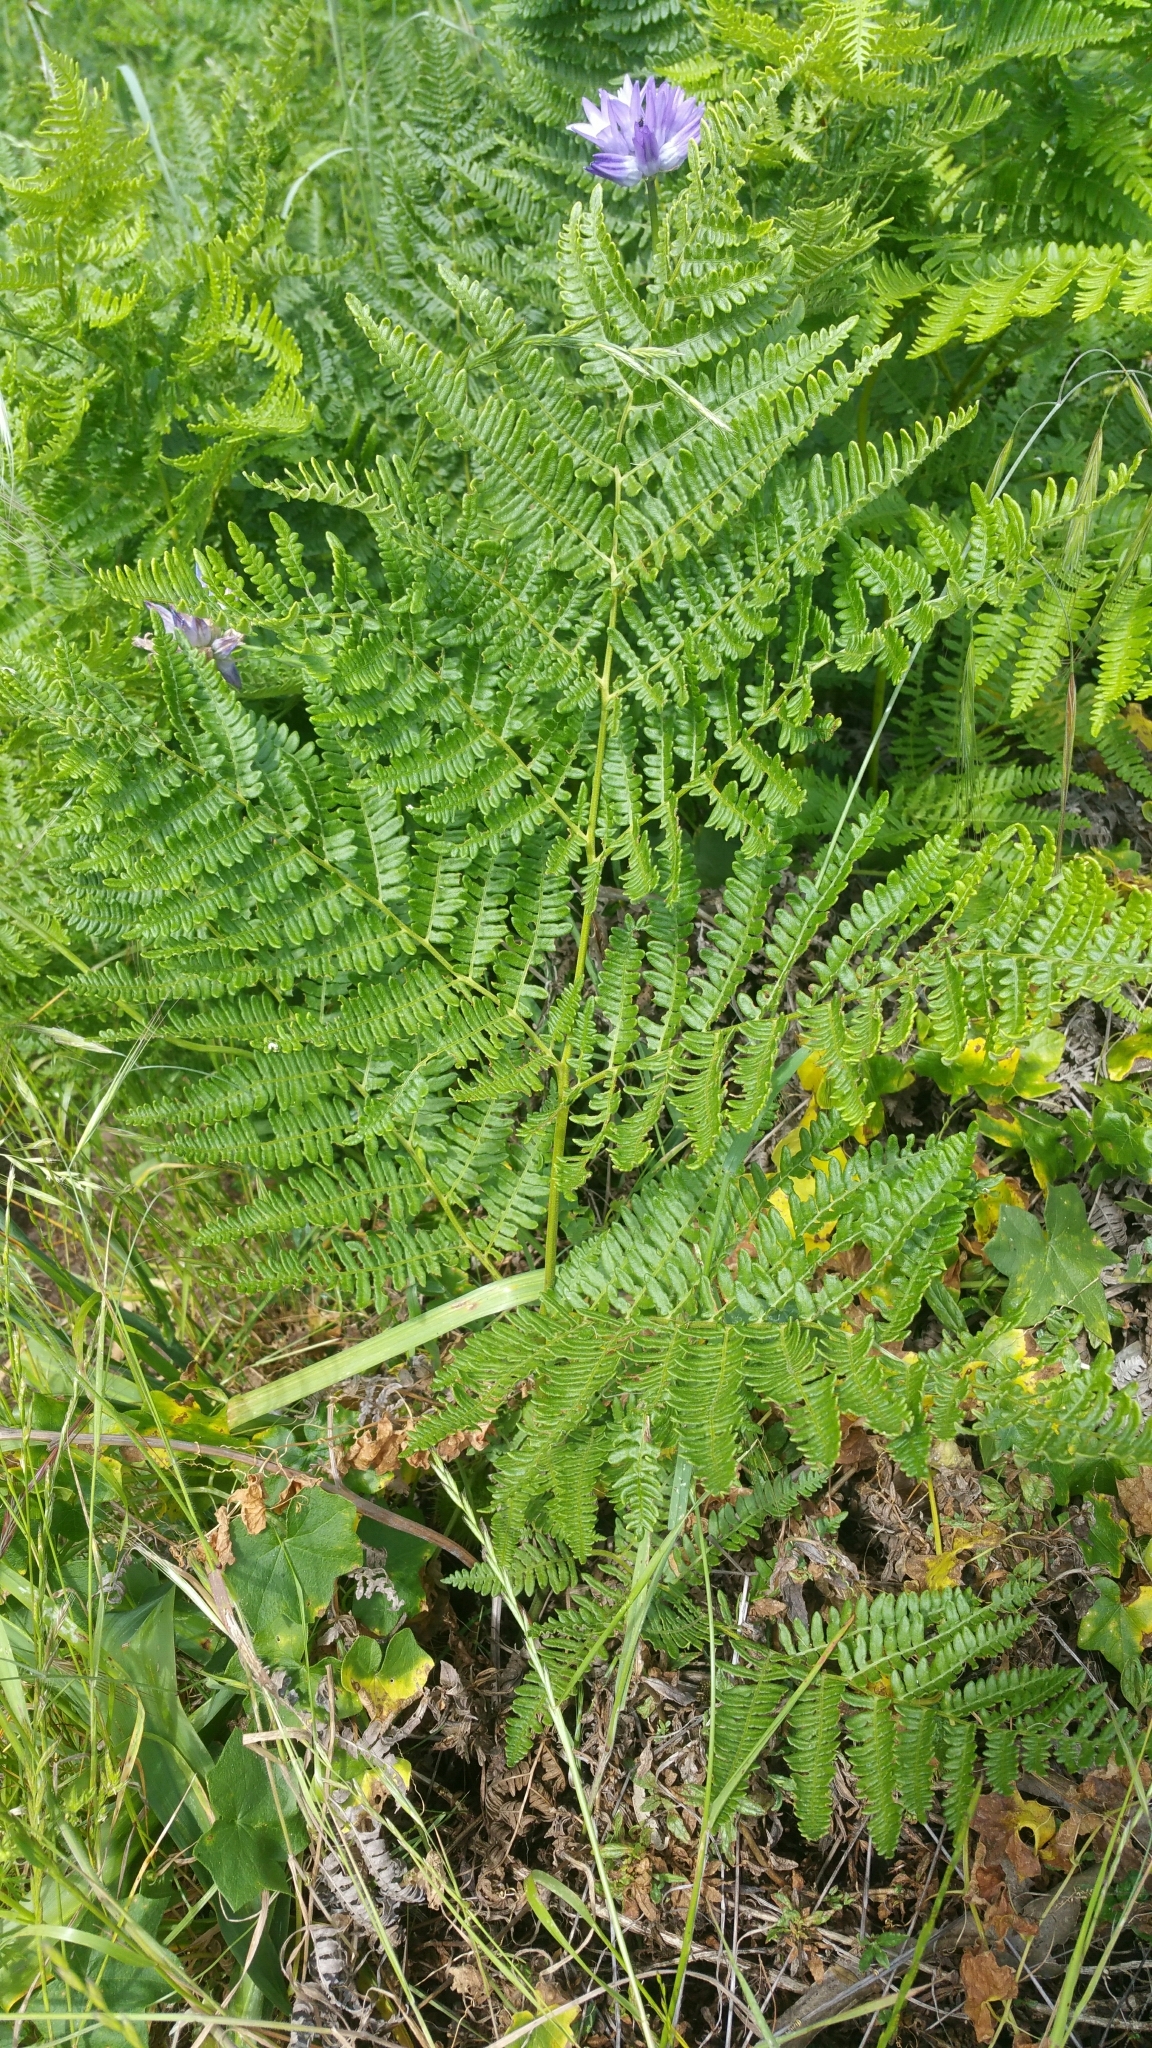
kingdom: Plantae
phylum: Tracheophyta
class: Polypodiopsida
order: Polypodiales
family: Dennstaedtiaceae
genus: Pteridium
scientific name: Pteridium aquilinum
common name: Bracken
